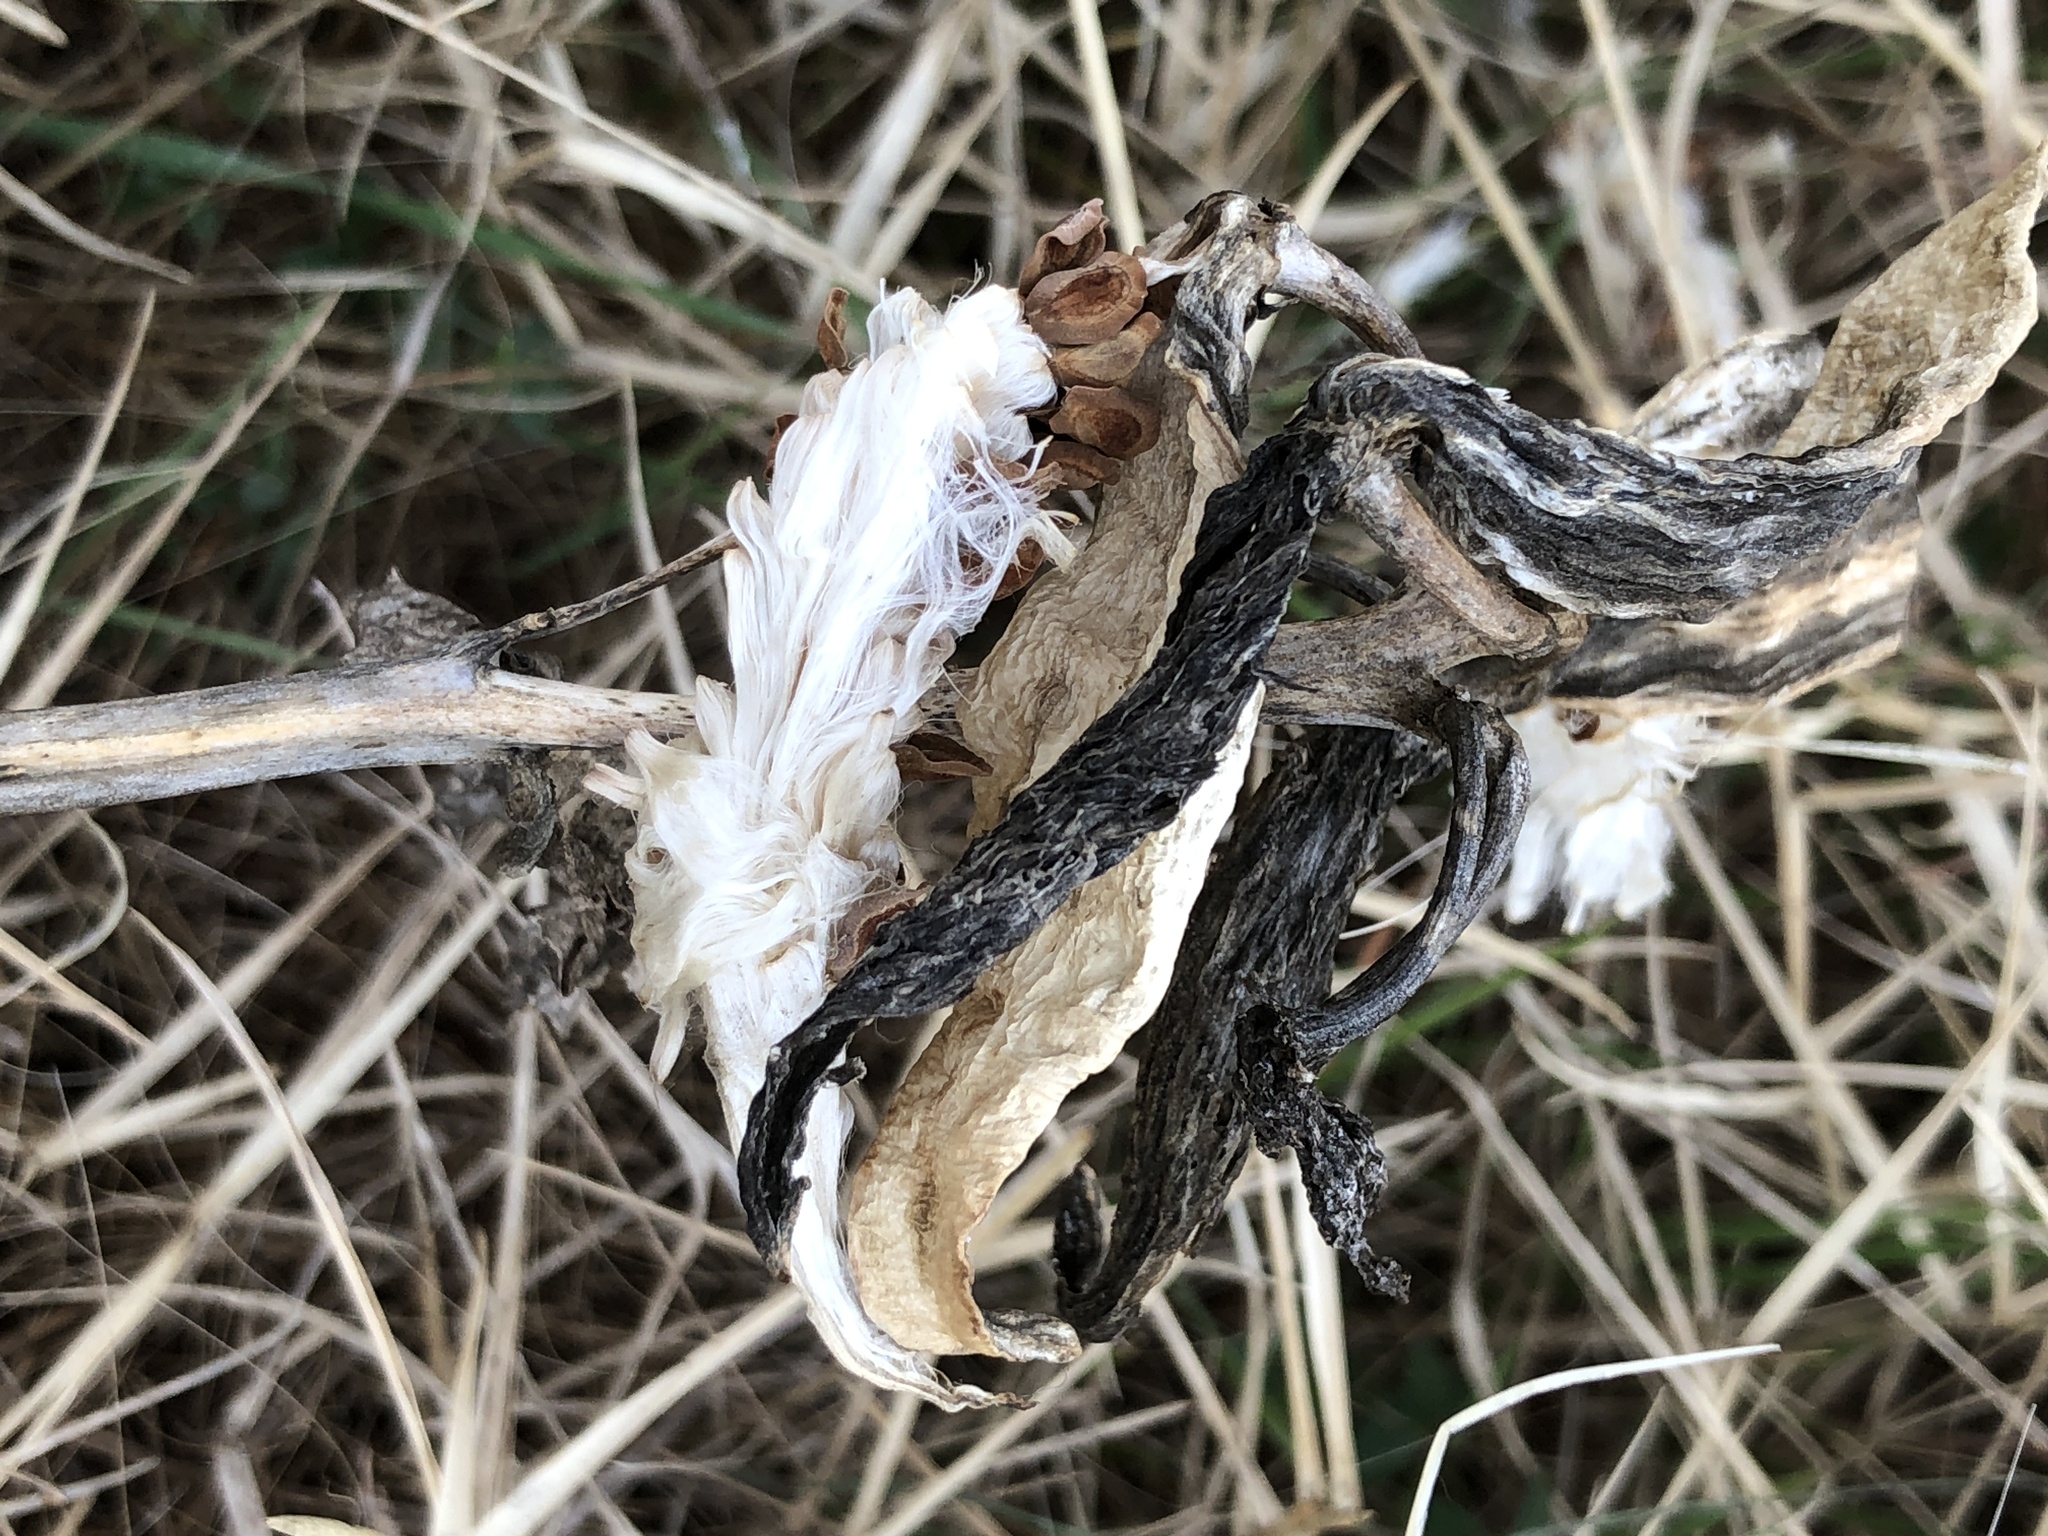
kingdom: Plantae
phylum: Tracheophyta
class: Magnoliopsida
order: Gentianales
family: Apocynaceae
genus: Asclepias
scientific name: Asclepias viridis
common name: Antelope-horns
